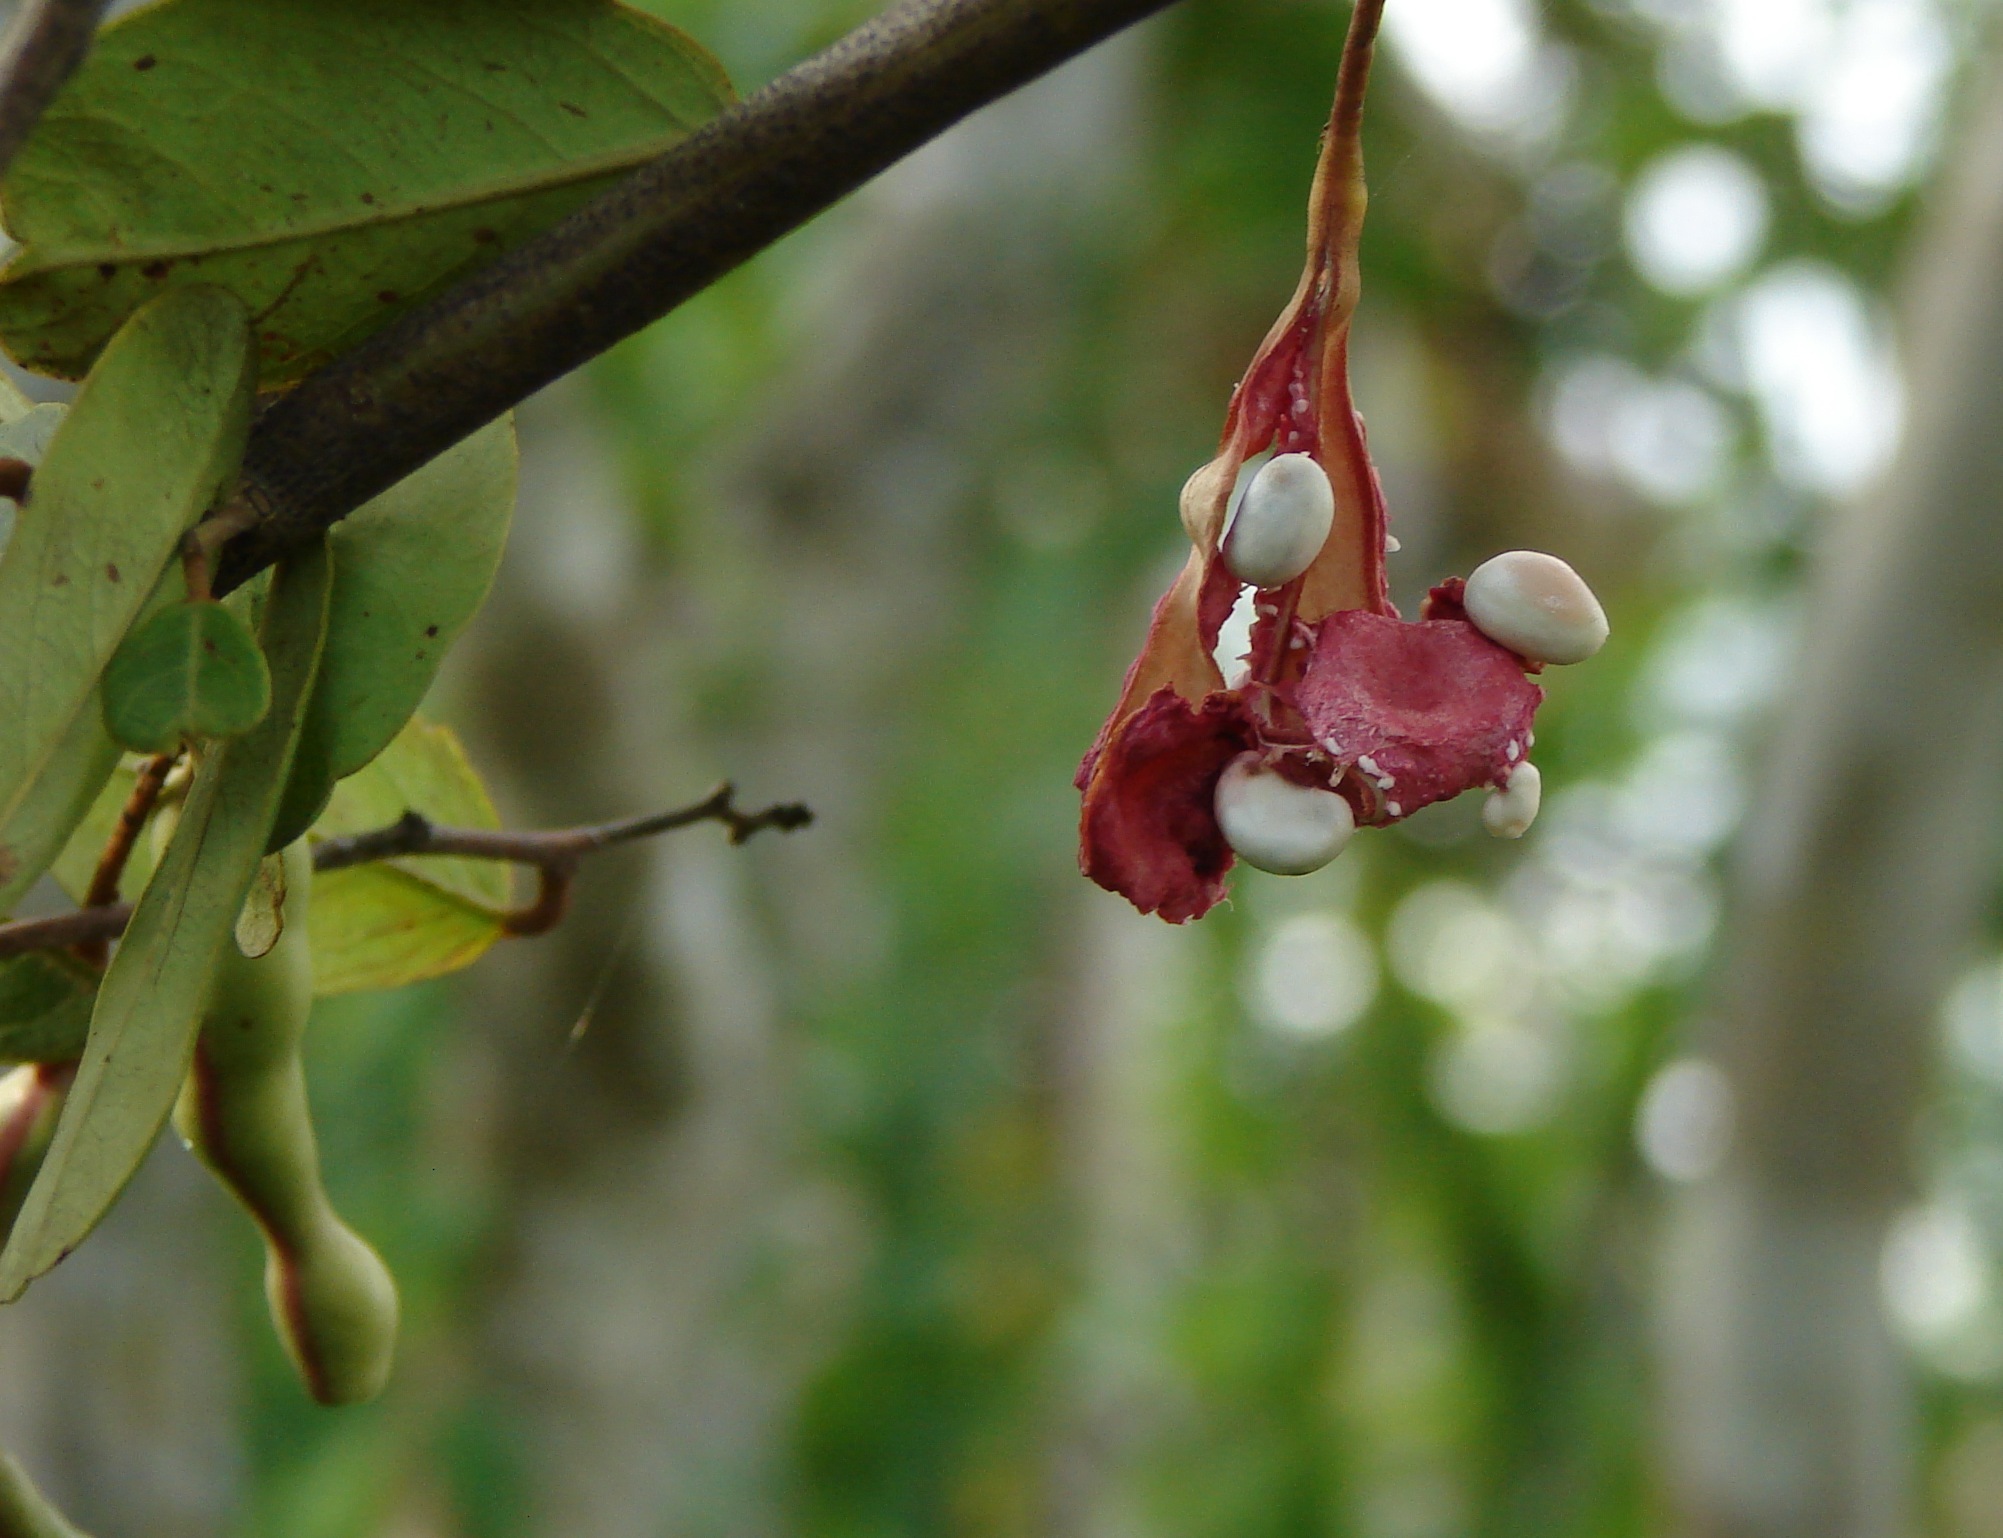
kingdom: Plantae
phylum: Tracheophyta
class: Magnoliopsida
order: Brassicales
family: Capparaceae
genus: Cynophalla
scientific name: Cynophalla flexuosa
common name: Capertree
